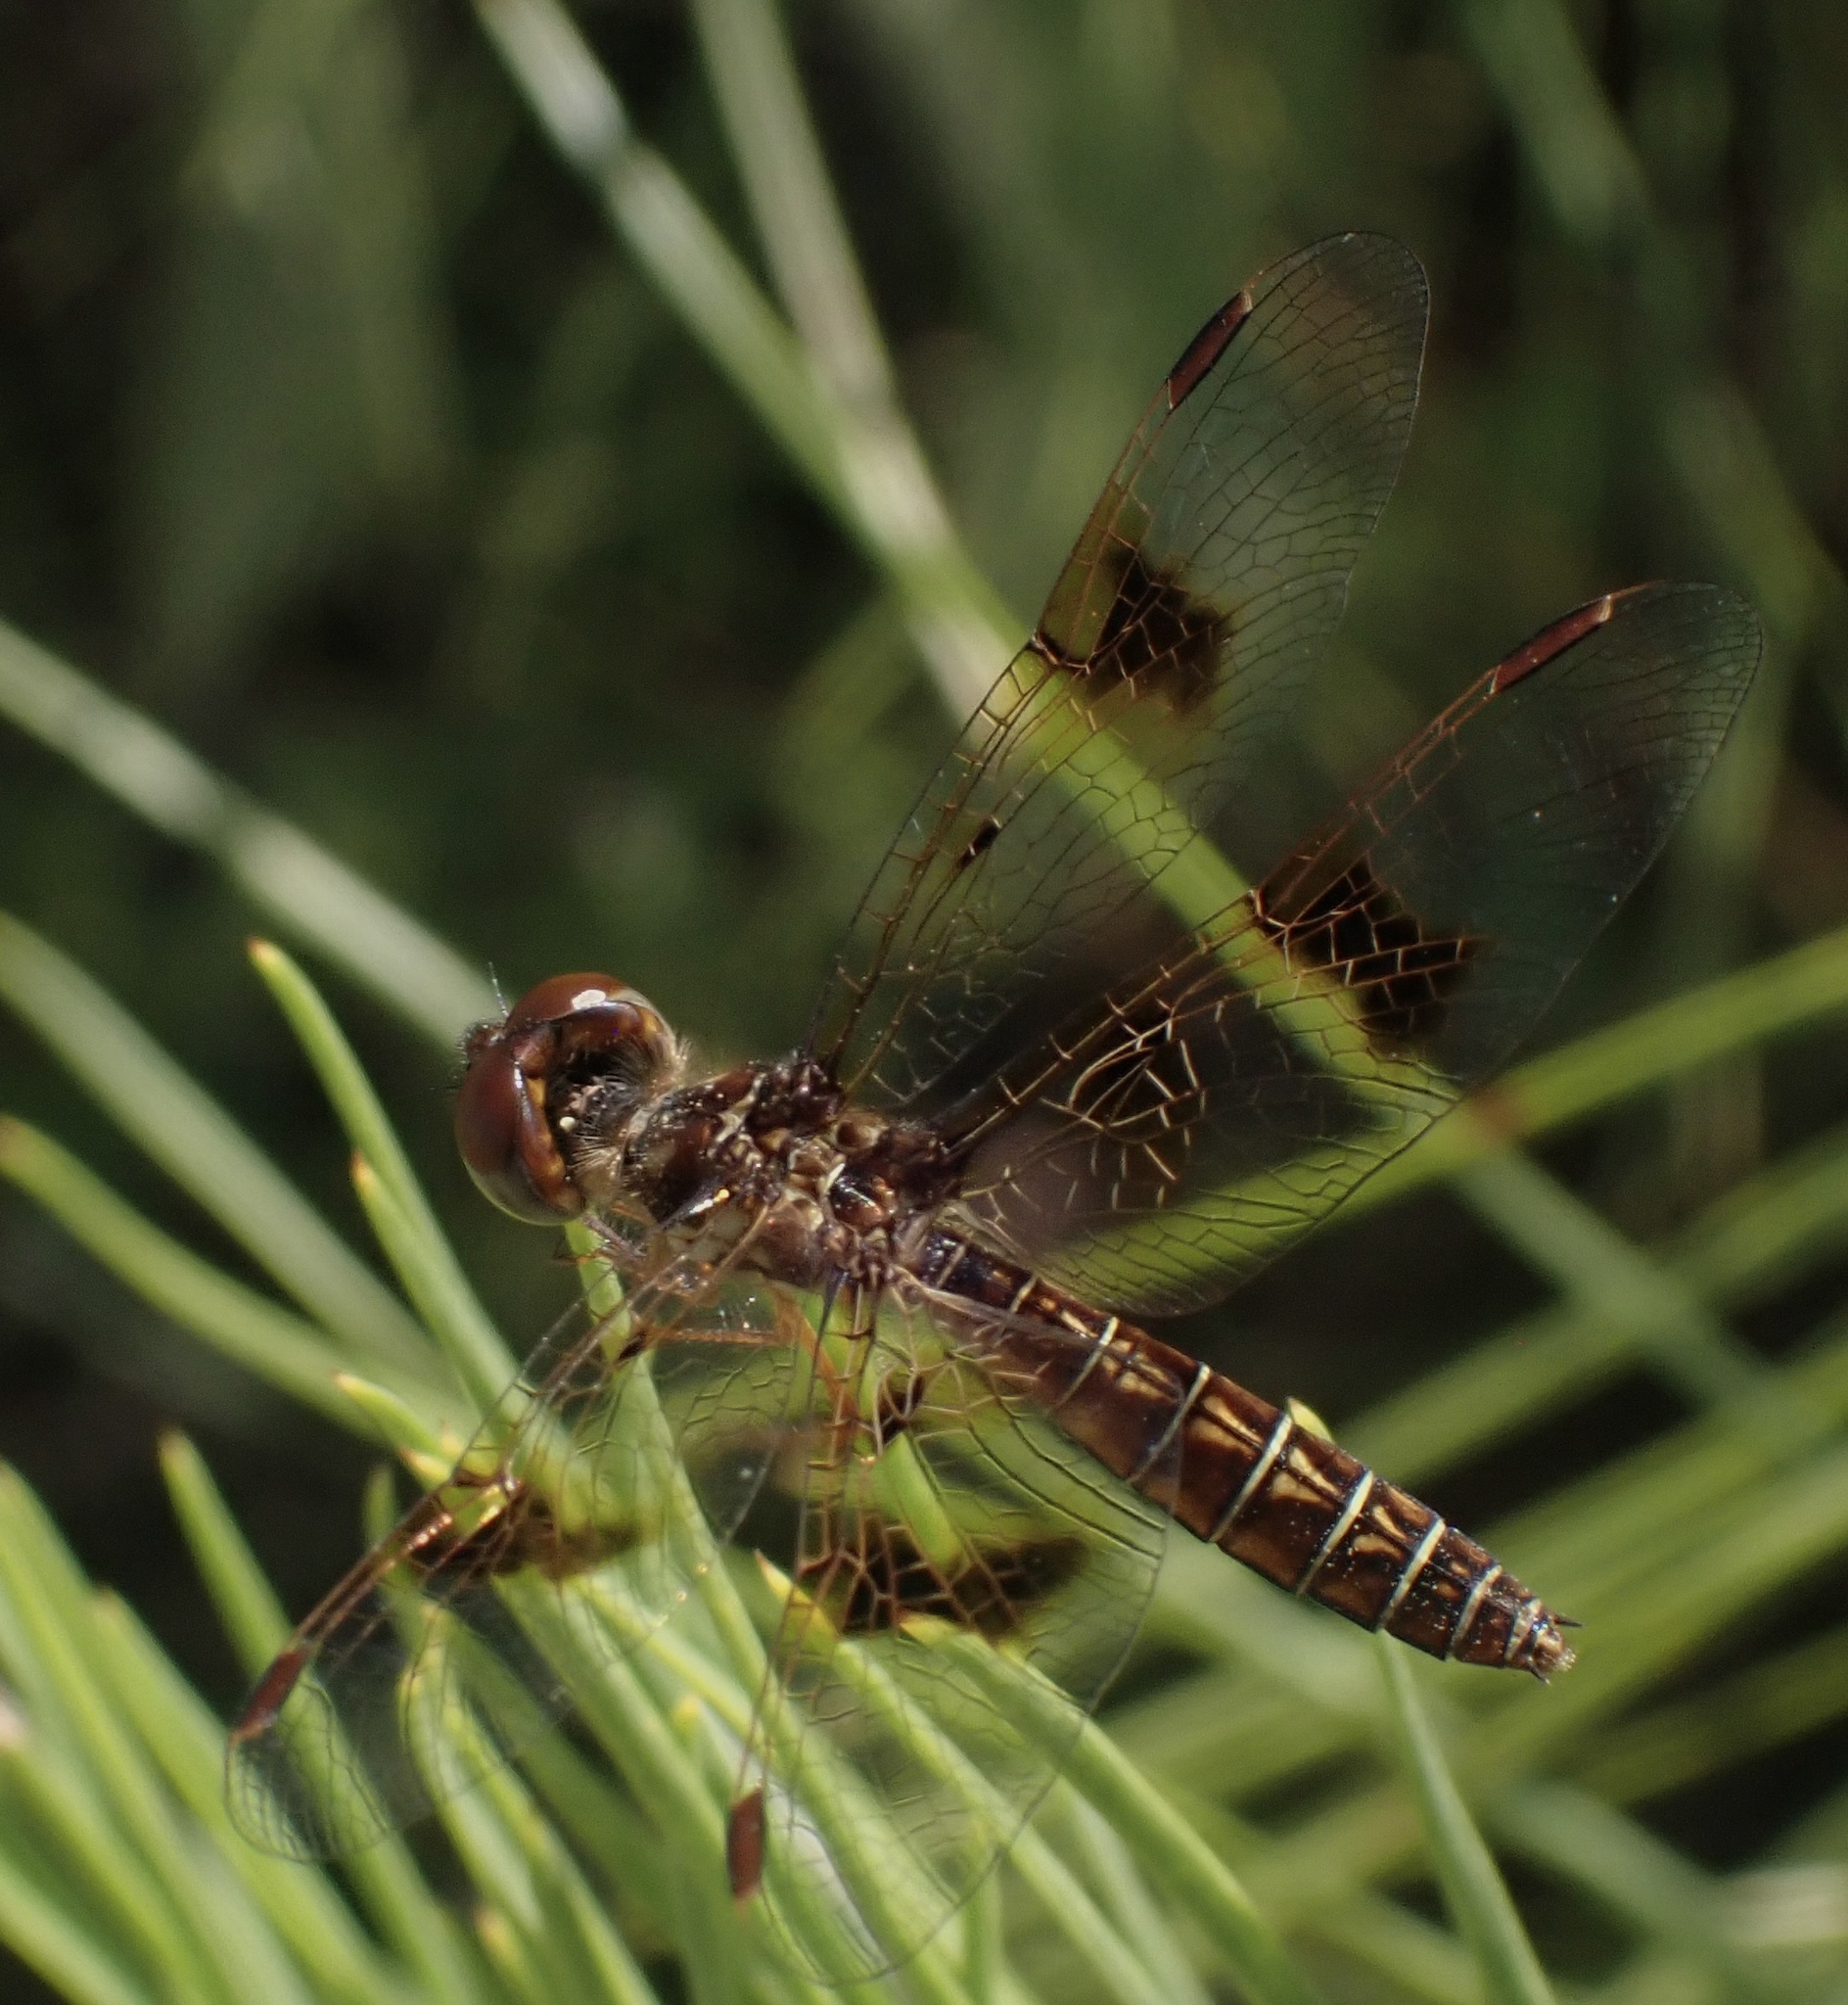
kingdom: Animalia
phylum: Arthropoda
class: Insecta
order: Odonata
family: Libellulidae
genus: Perithemis
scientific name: Perithemis tenera
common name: Eastern amberwing
